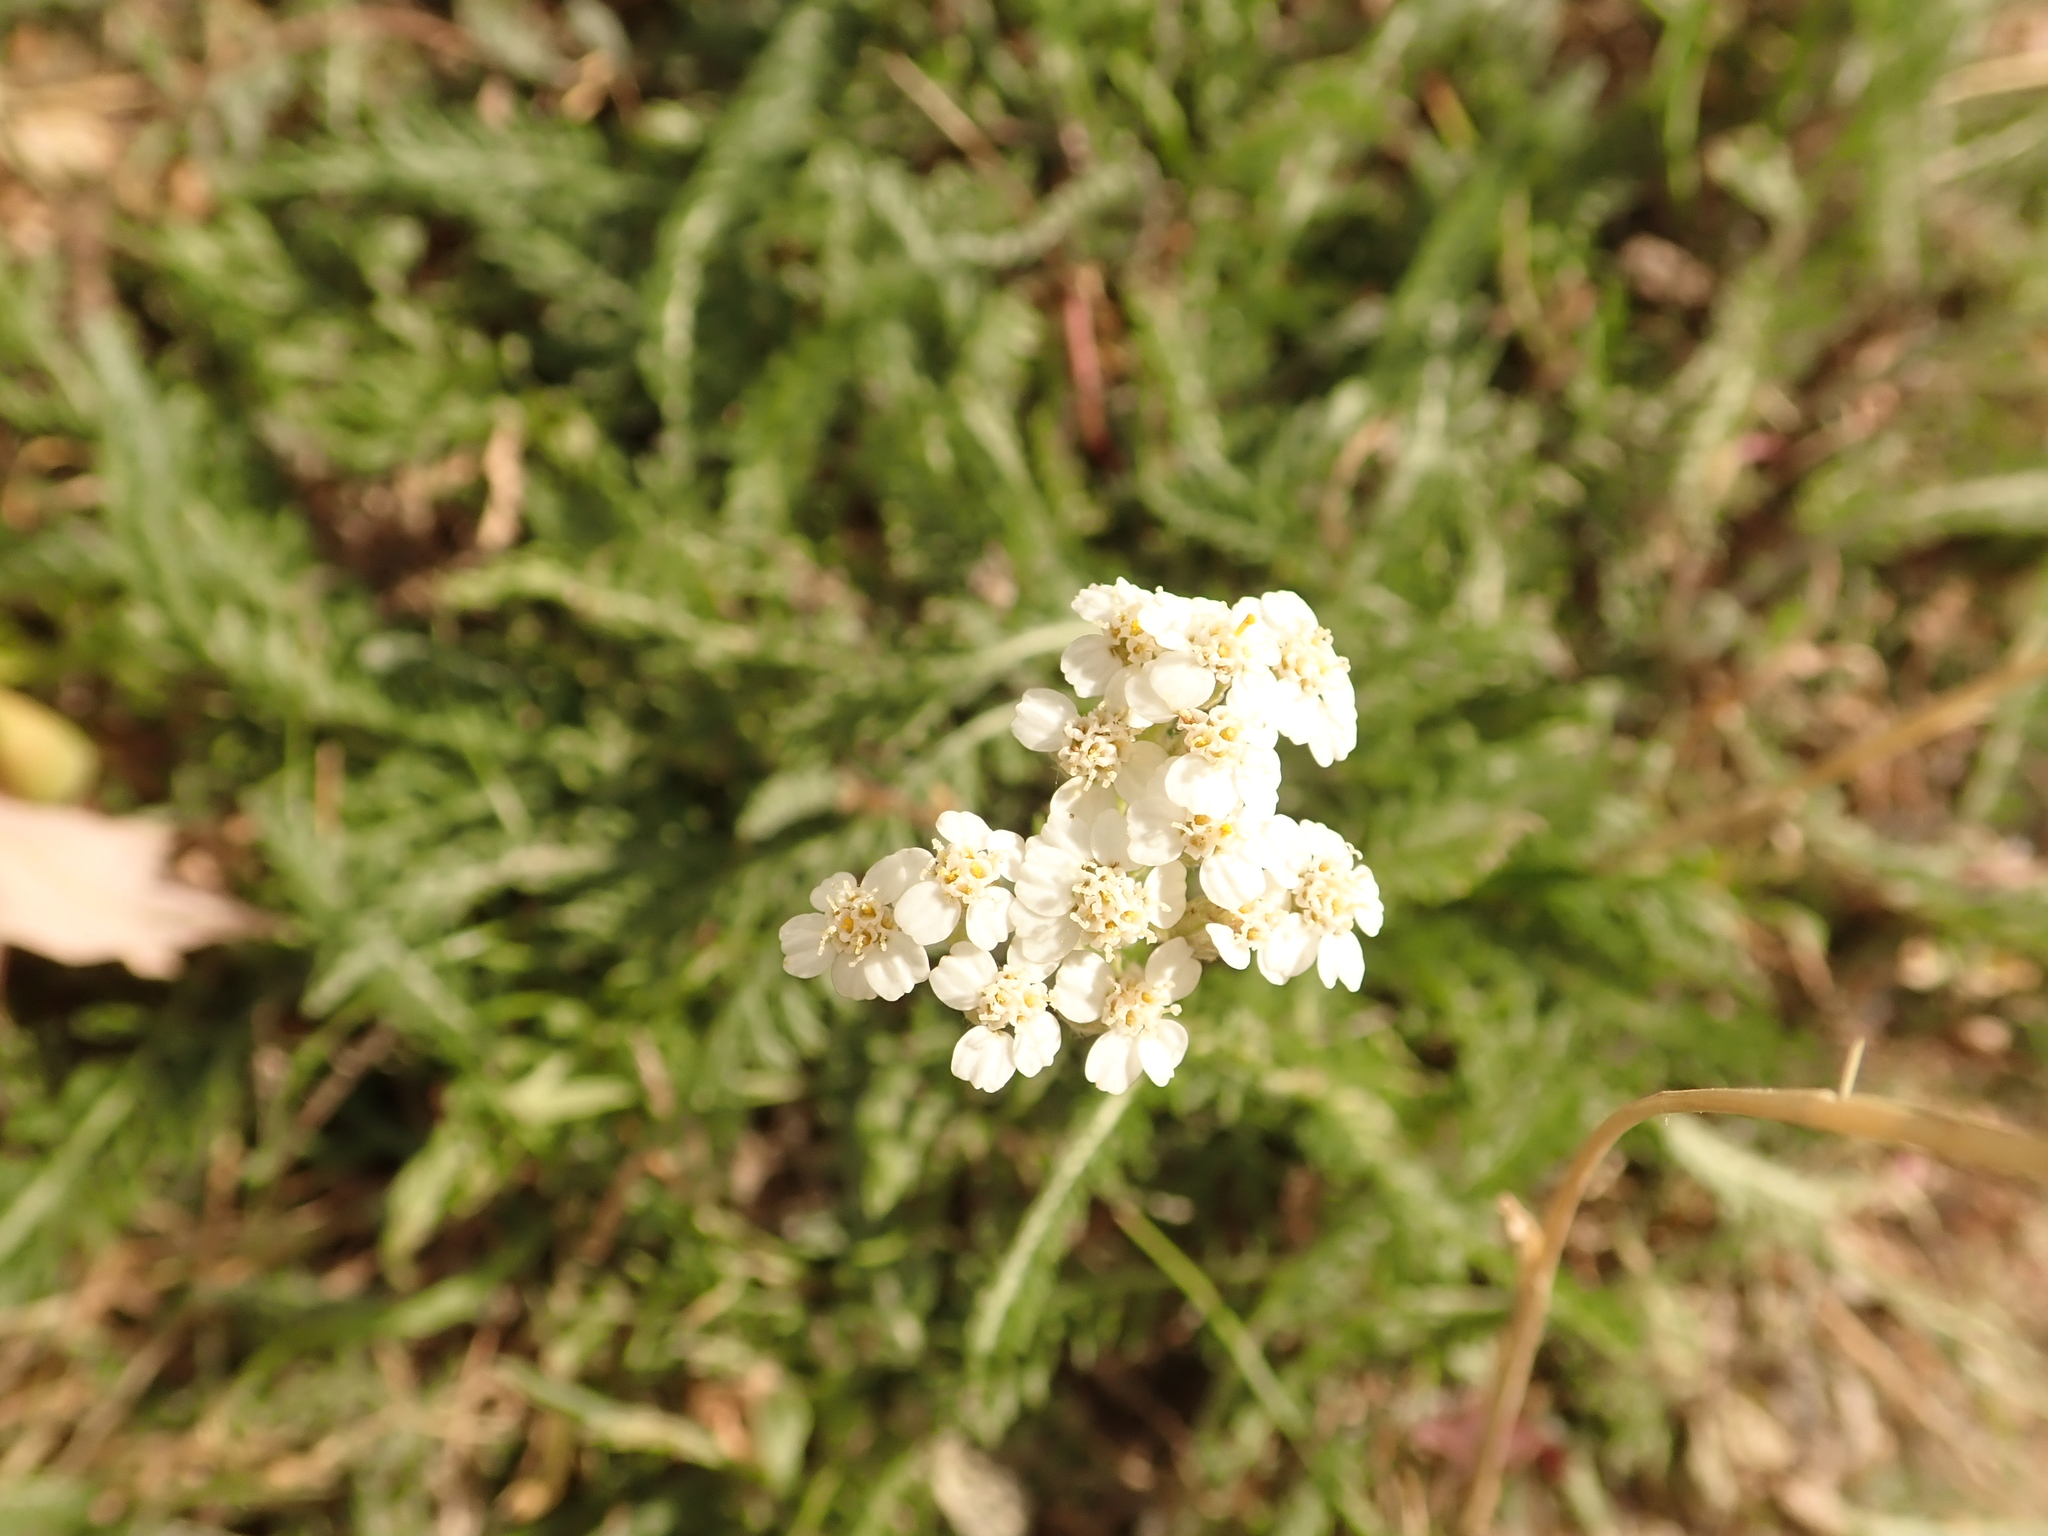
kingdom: Plantae
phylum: Tracheophyta
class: Magnoliopsida
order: Asterales
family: Asteraceae
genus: Achillea
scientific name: Achillea millefolium
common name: Yarrow
